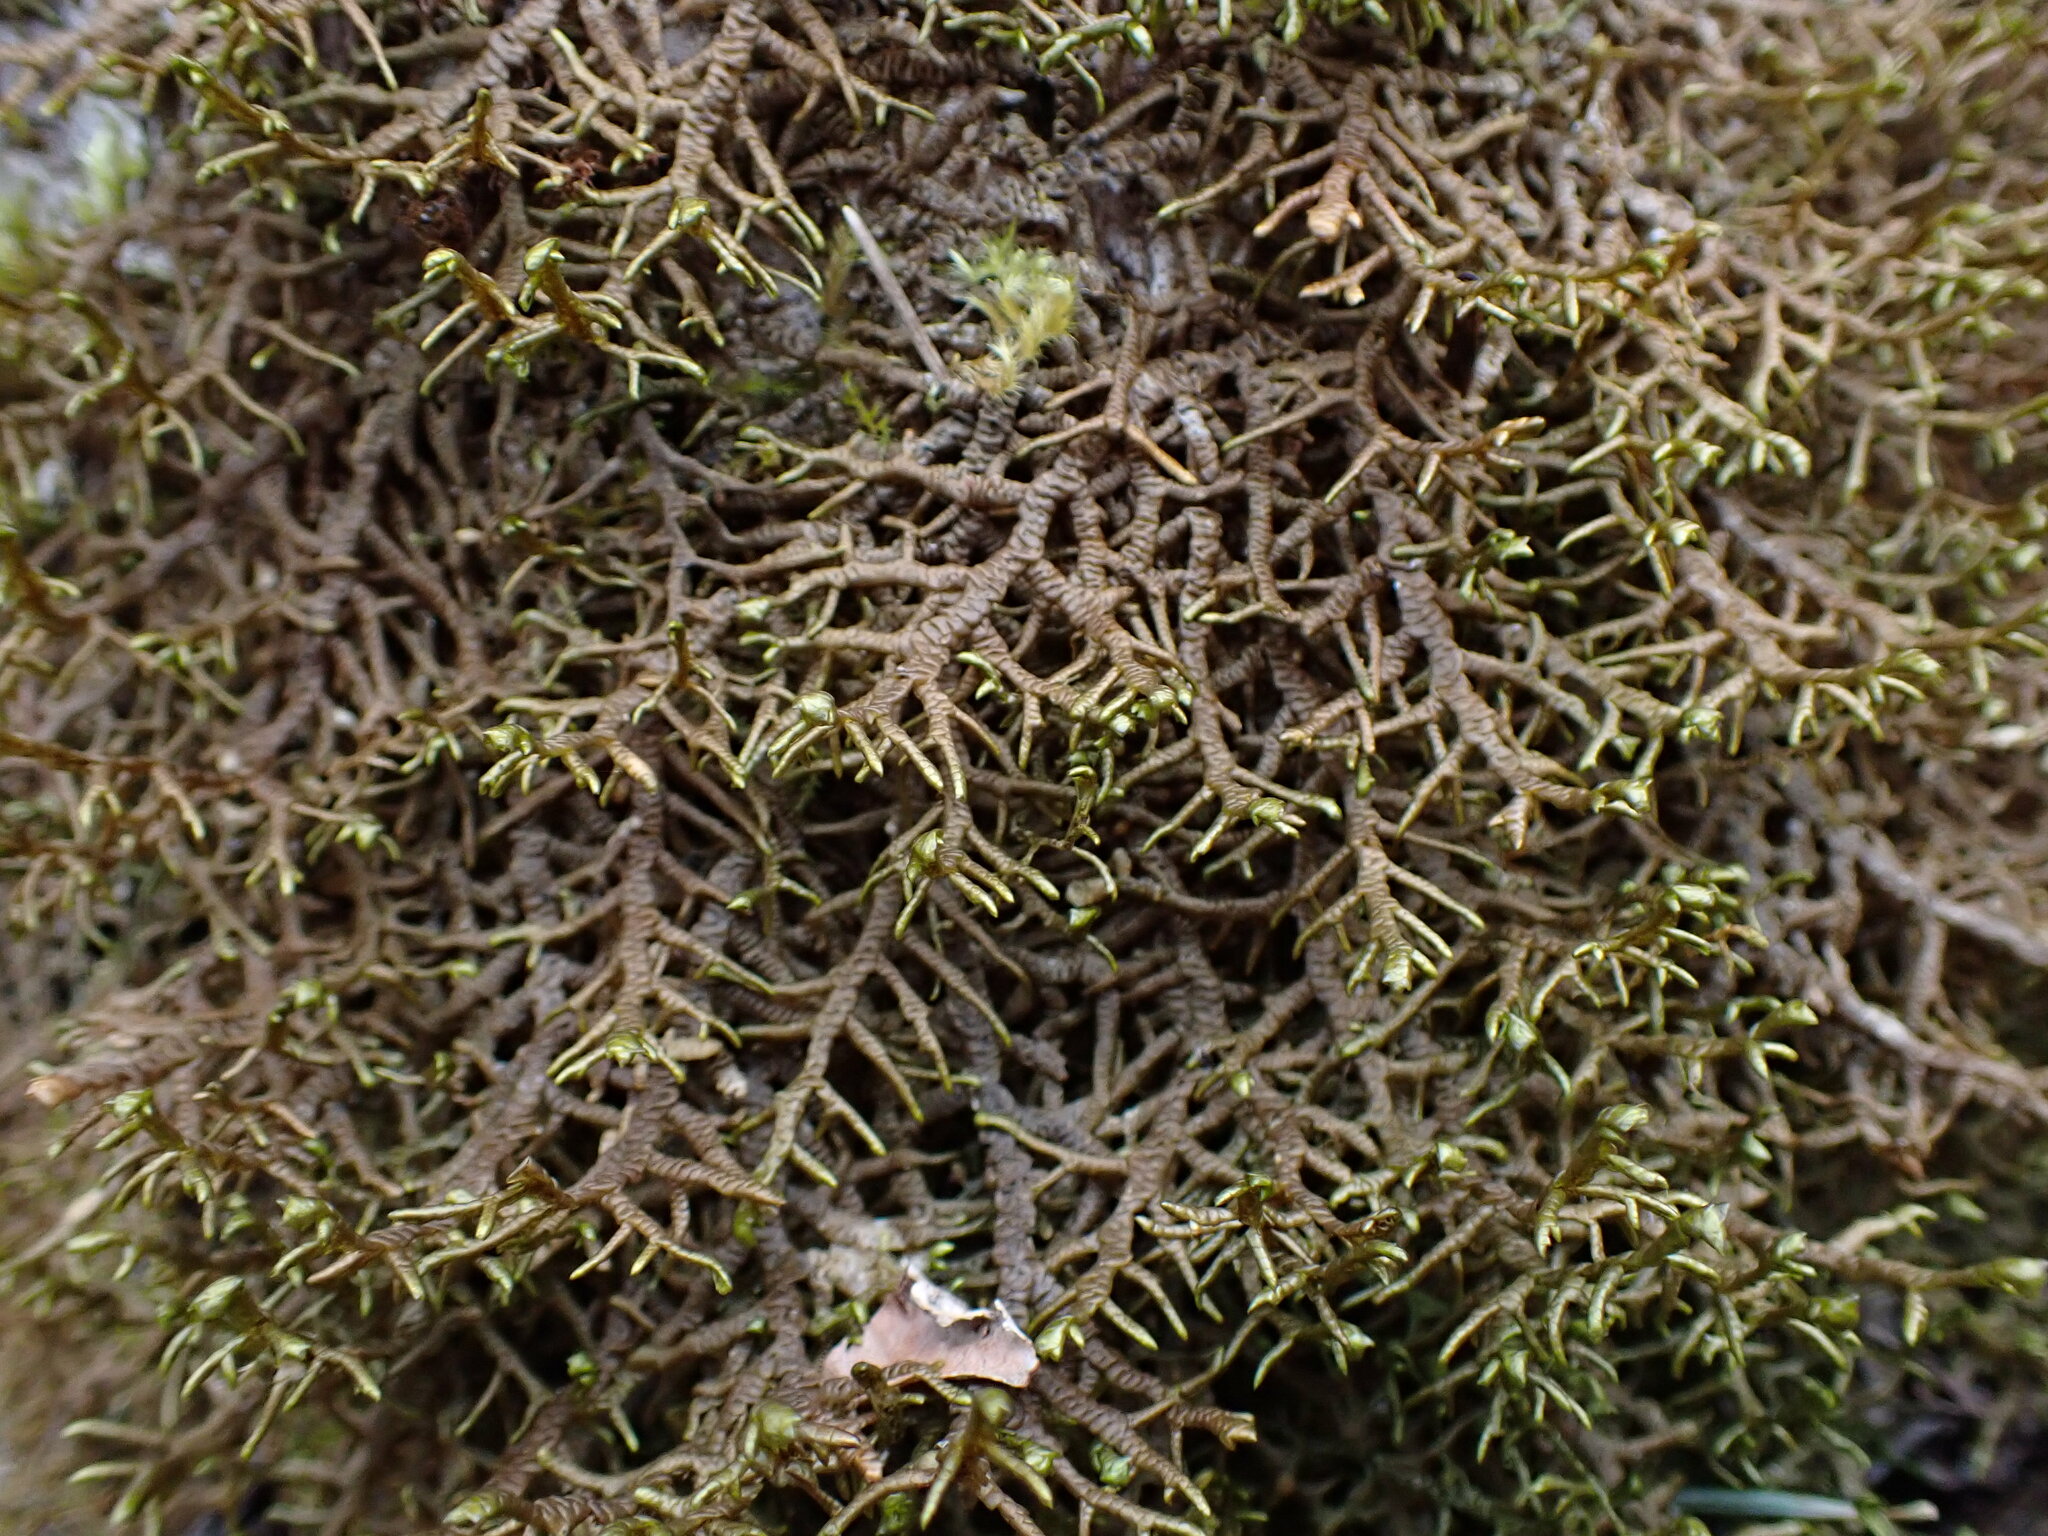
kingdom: Plantae
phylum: Marchantiophyta
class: Jungermanniopsida
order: Porellales
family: Porellaceae
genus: Porella
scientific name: Porella navicularis
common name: Tree ruffle liverwort
